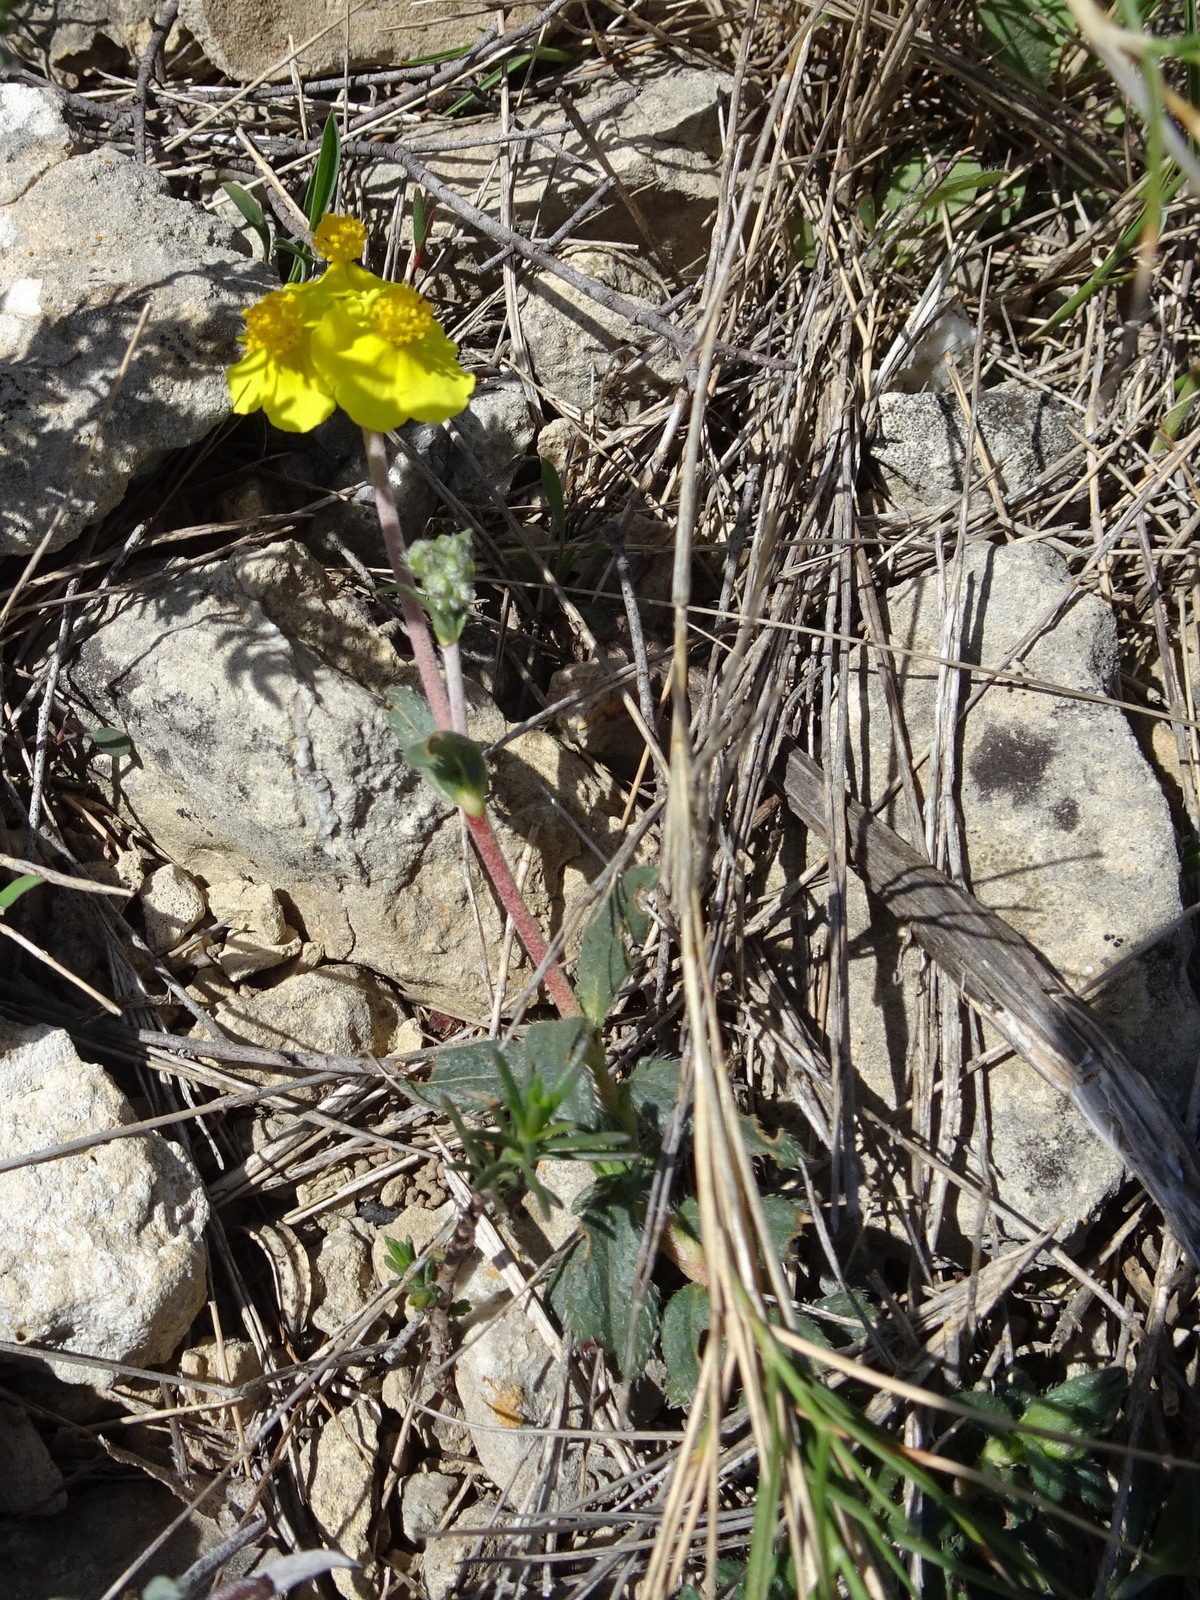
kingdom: Plantae
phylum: Tracheophyta
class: Magnoliopsida
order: Malvales
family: Cistaceae
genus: Helianthemum
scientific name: Helianthemum nummularium
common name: Common rock-rose
